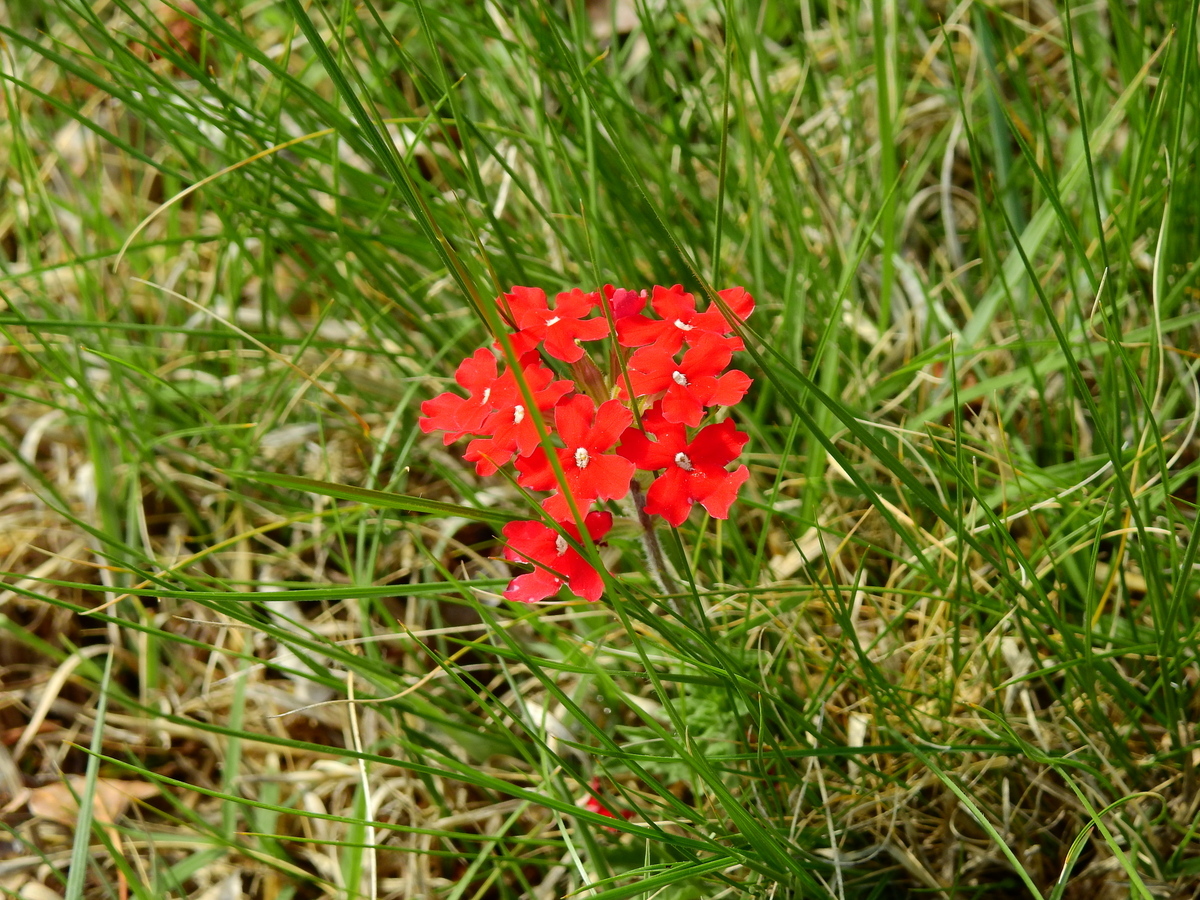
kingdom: Plantae
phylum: Tracheophyta
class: Magnoliopsida
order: Lamiales
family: Verbenaceae
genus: Verbena
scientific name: Verbena peruviana
